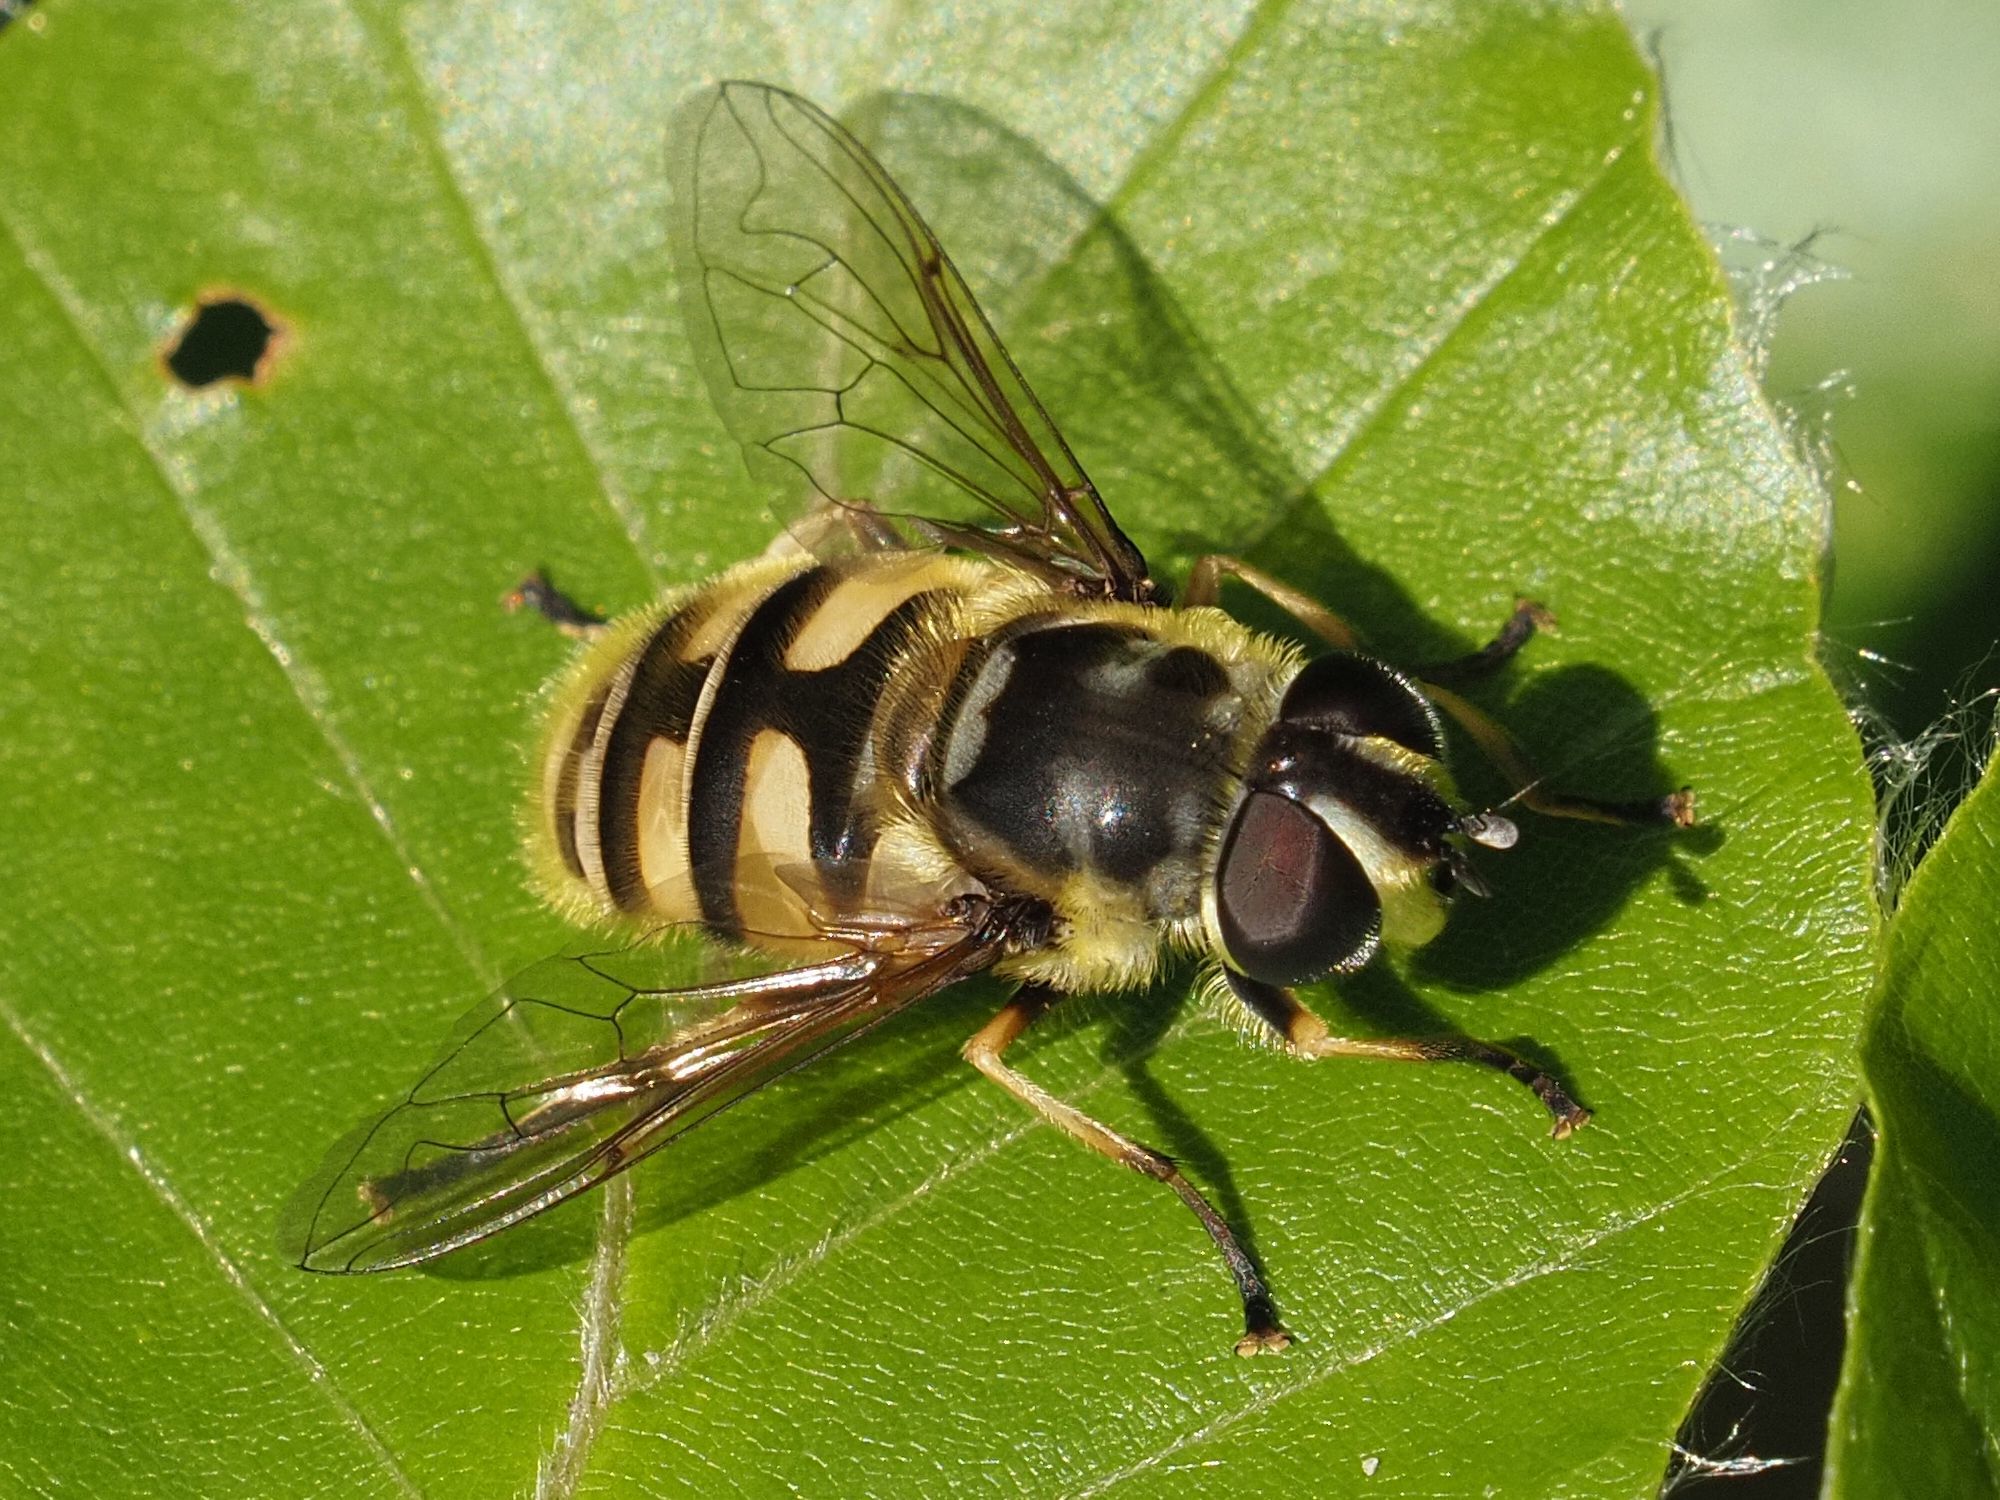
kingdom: Animalia
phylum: Arthropoda
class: Insecta
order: Diptera
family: Syrphidae
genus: Myathropa
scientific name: Myathropa florea
